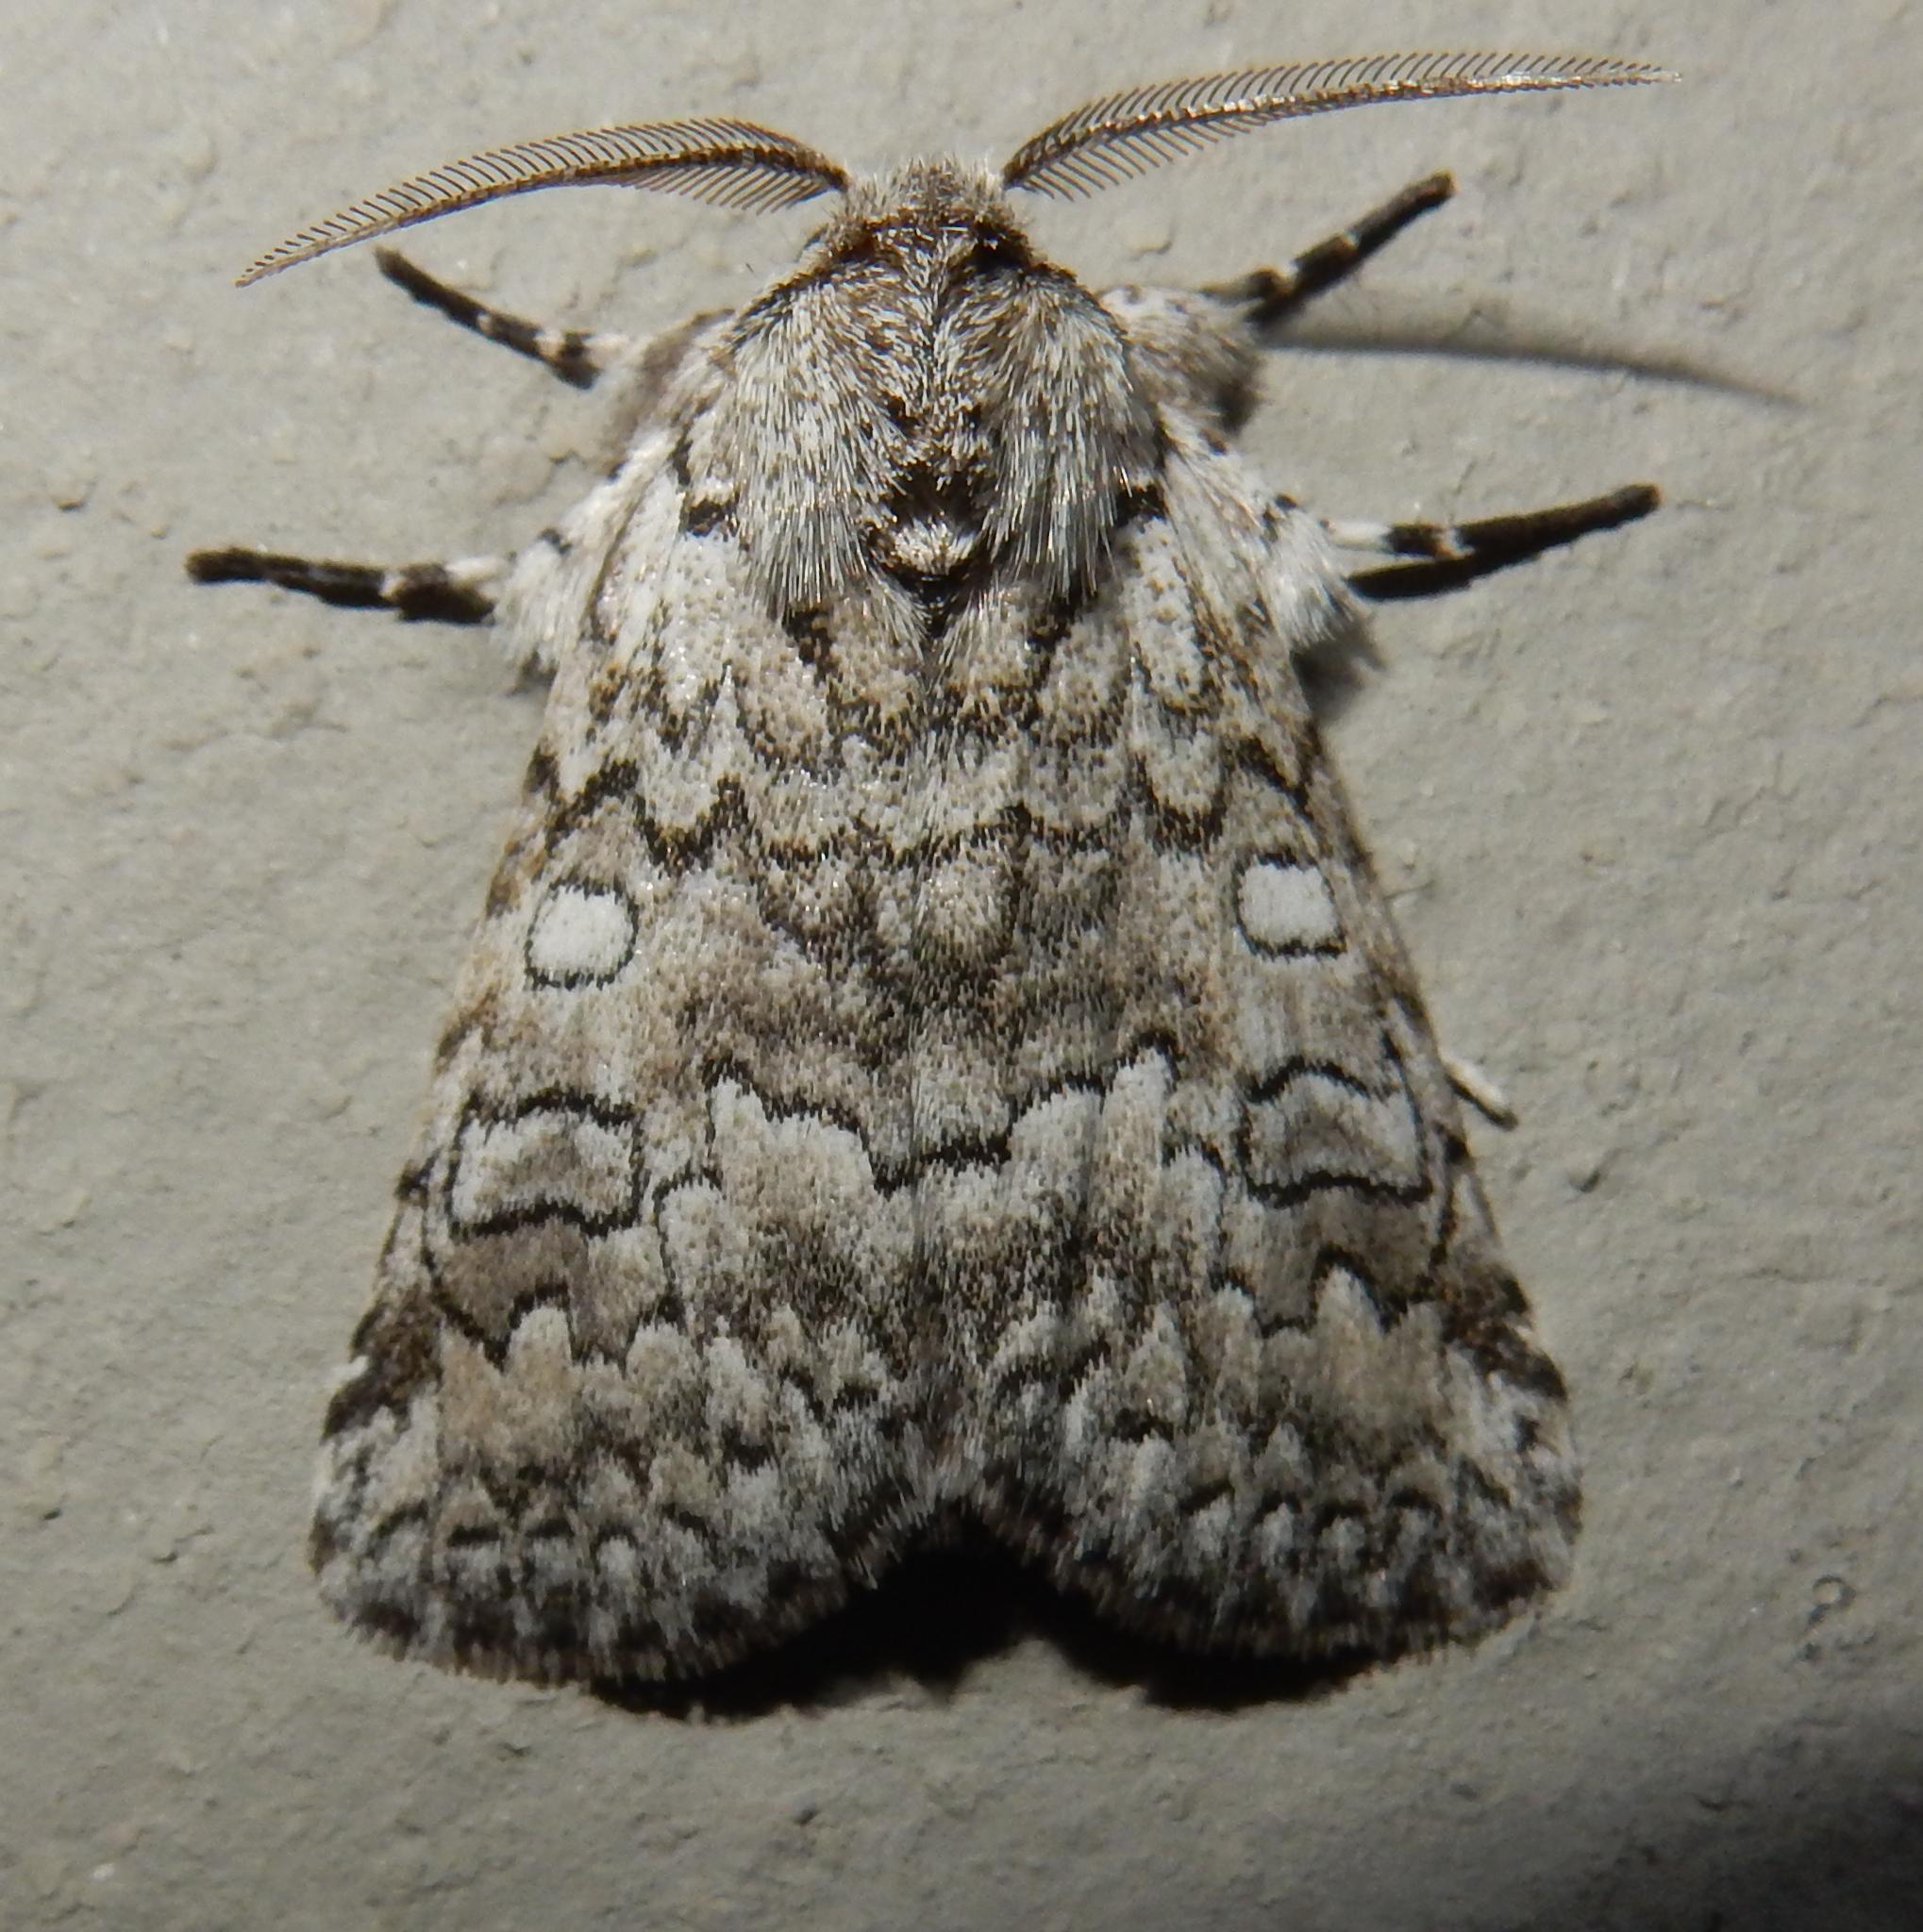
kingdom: Animalia
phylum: Arthropoda
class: Insecta
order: Lepidoptera
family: Erebidae
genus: Dasychira
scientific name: Dasychira Dicranuropsis vilis
